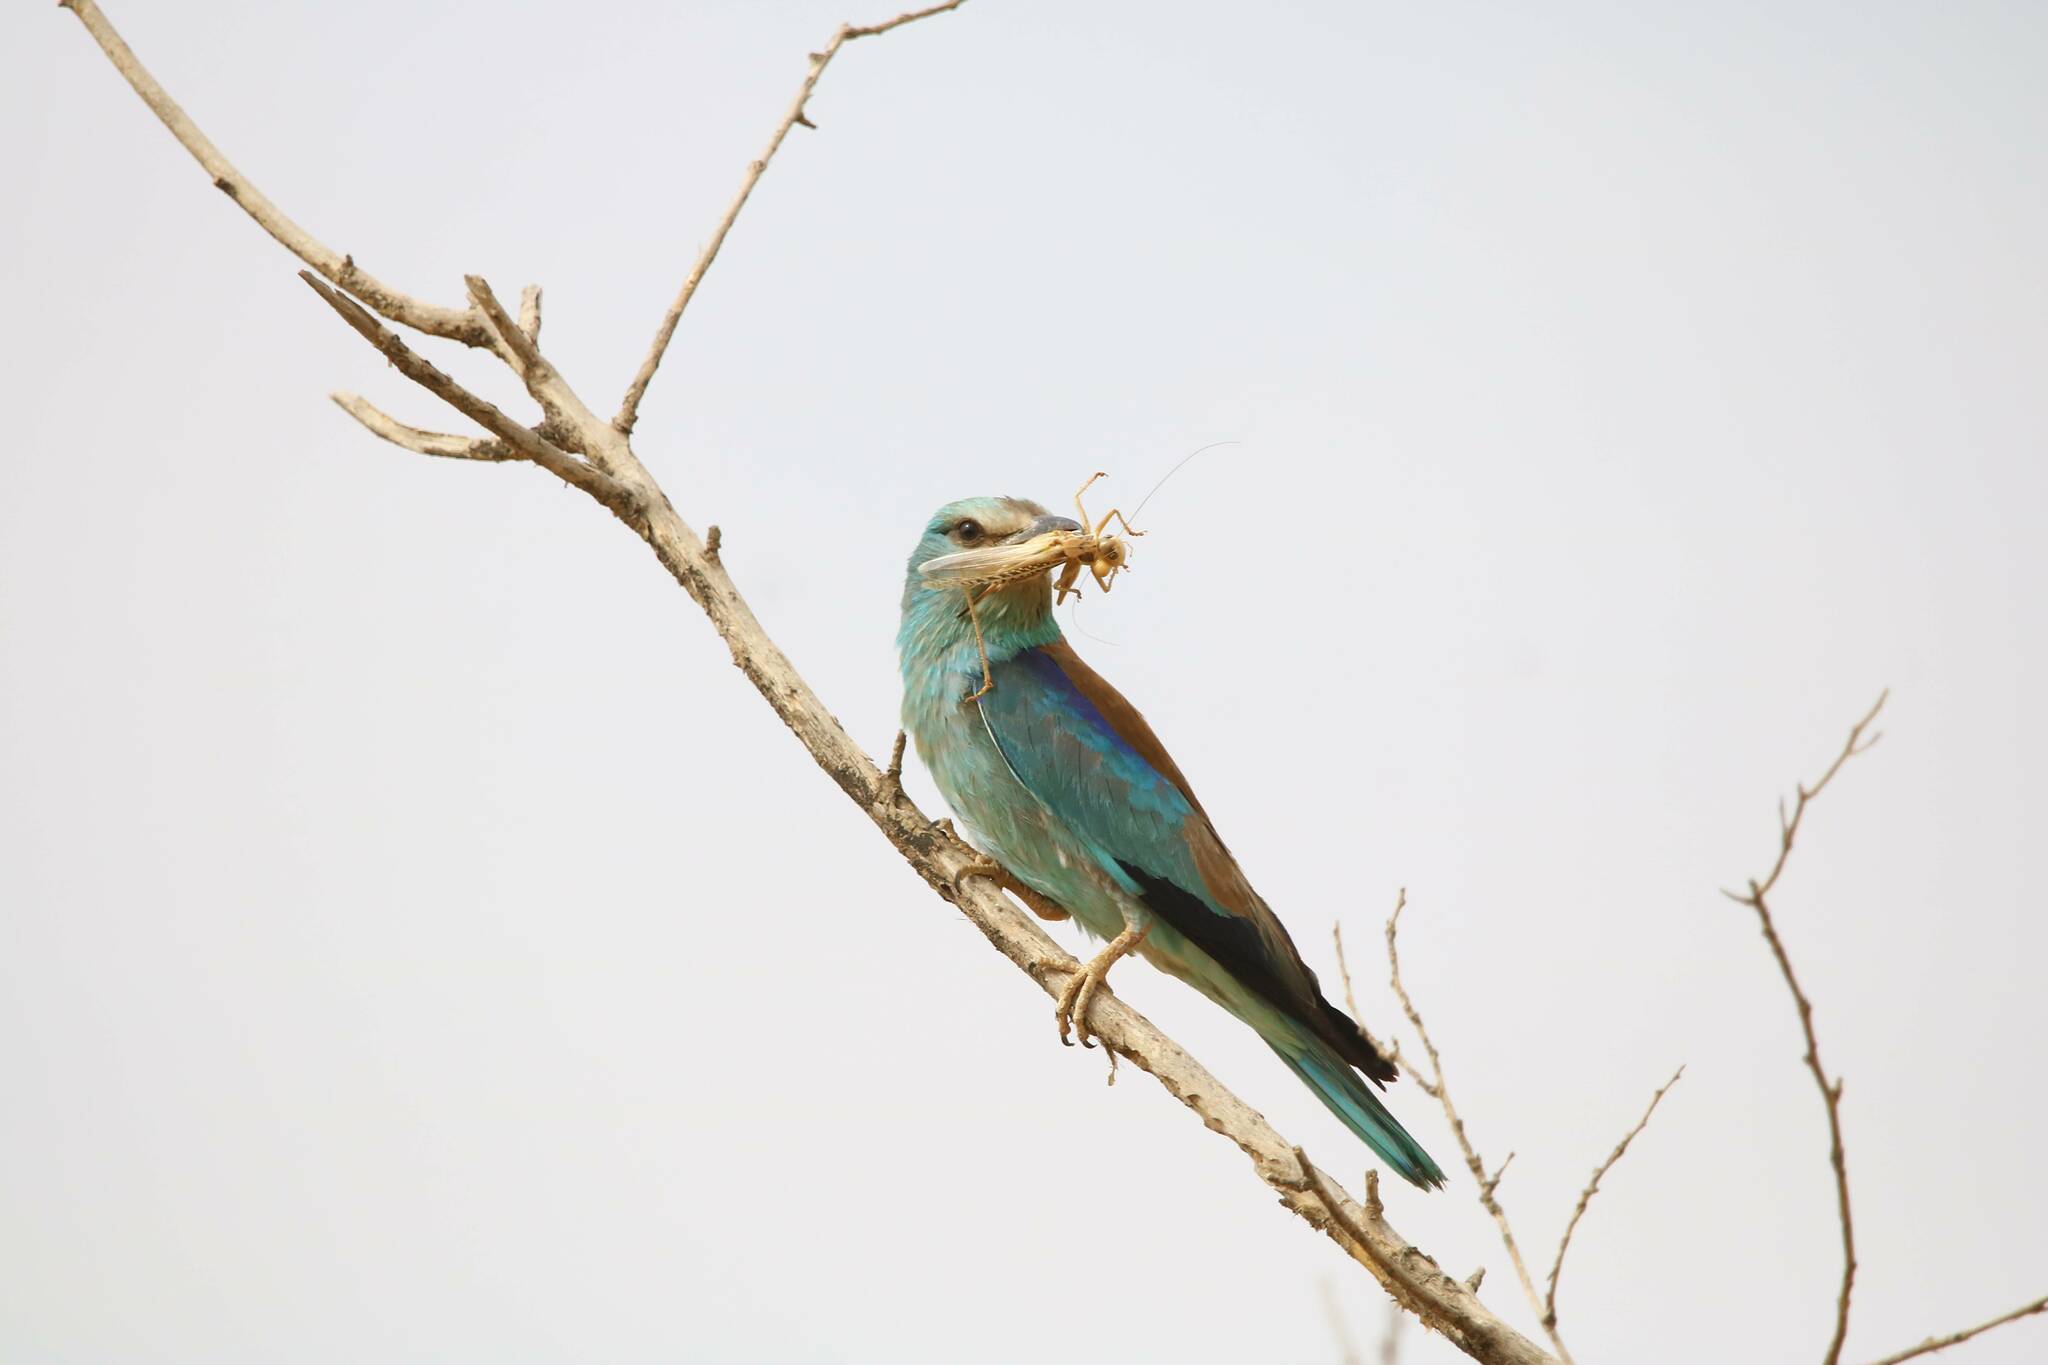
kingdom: Animalia
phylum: Chordata
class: Aves
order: Coraciiformes
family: Coraciidae
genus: Coracias
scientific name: Coracias garrulus
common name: European roller
